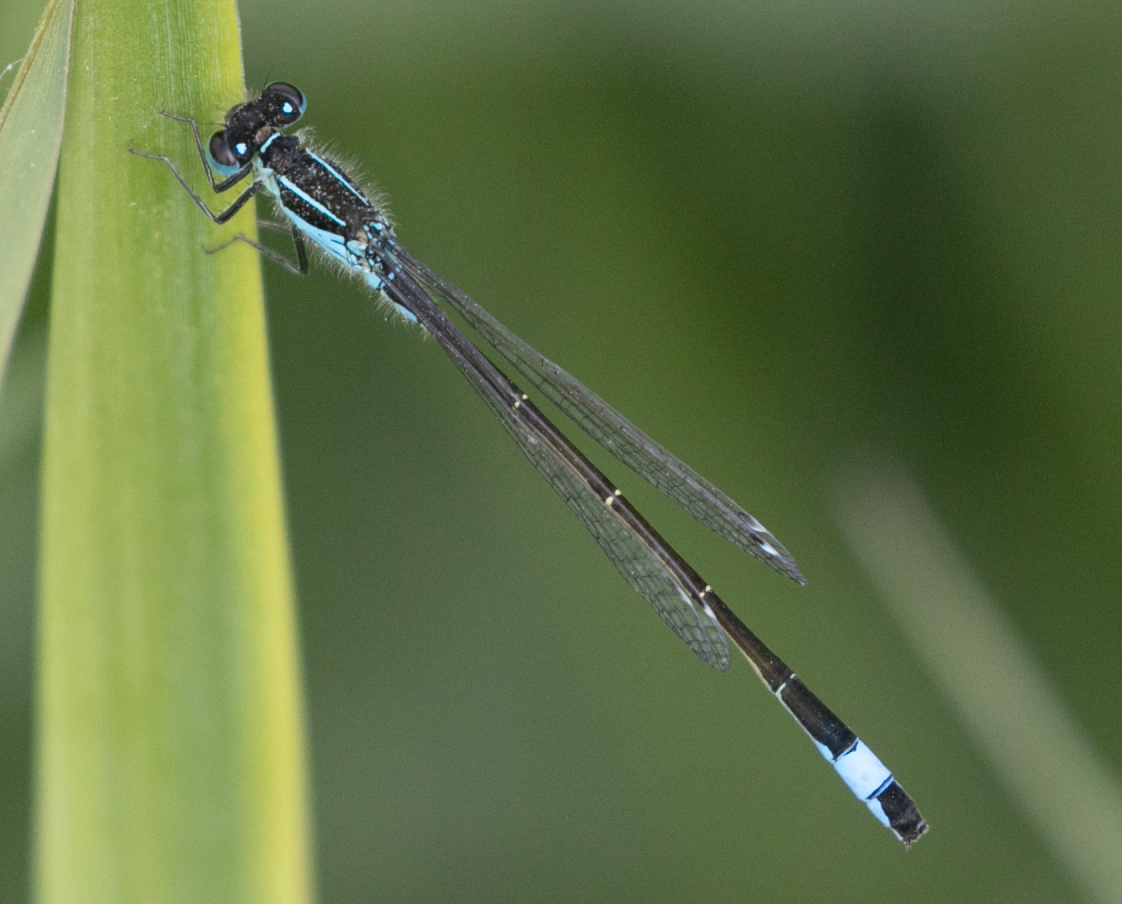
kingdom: Animalia
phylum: Arthropoda
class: Insecta
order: Odonata
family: Coenagrionidae
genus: Ischnura
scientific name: Ischnura elegans
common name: Blue-tailed damselfly
